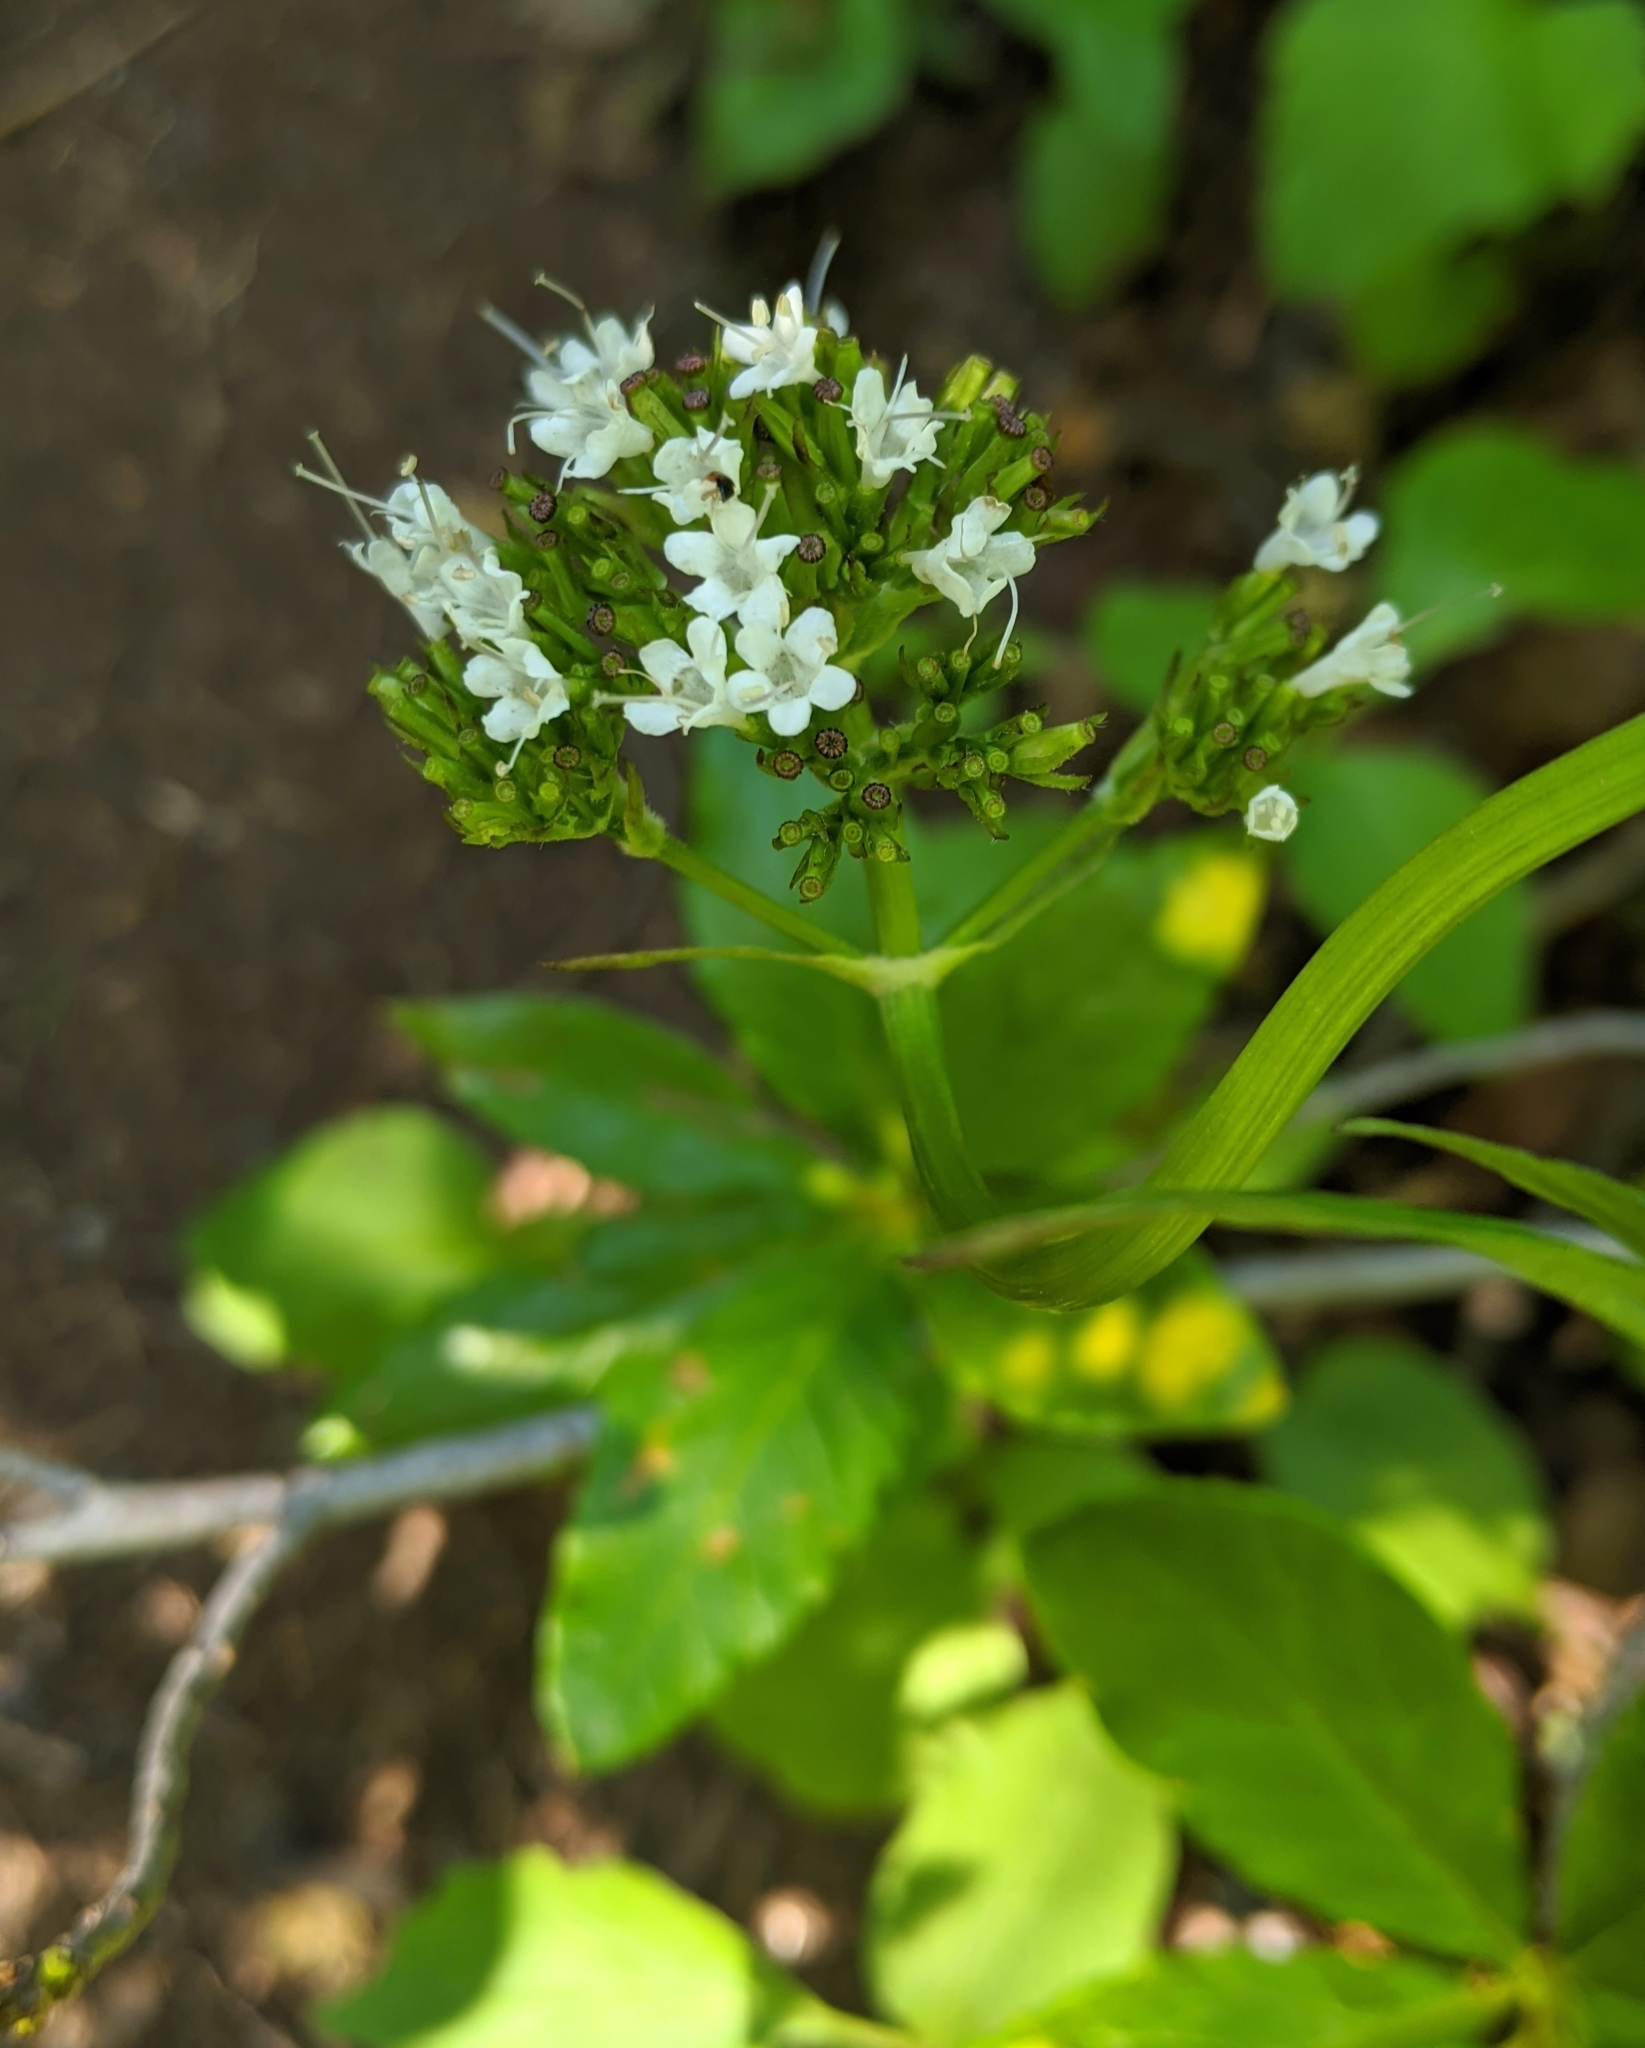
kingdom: Plantae
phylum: Tracheophyta
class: Magnoliopsida
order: Dipsacales
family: Caprifoliaceae
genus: Valeriana
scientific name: Valeriana sitchensis
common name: Pacific valerian
